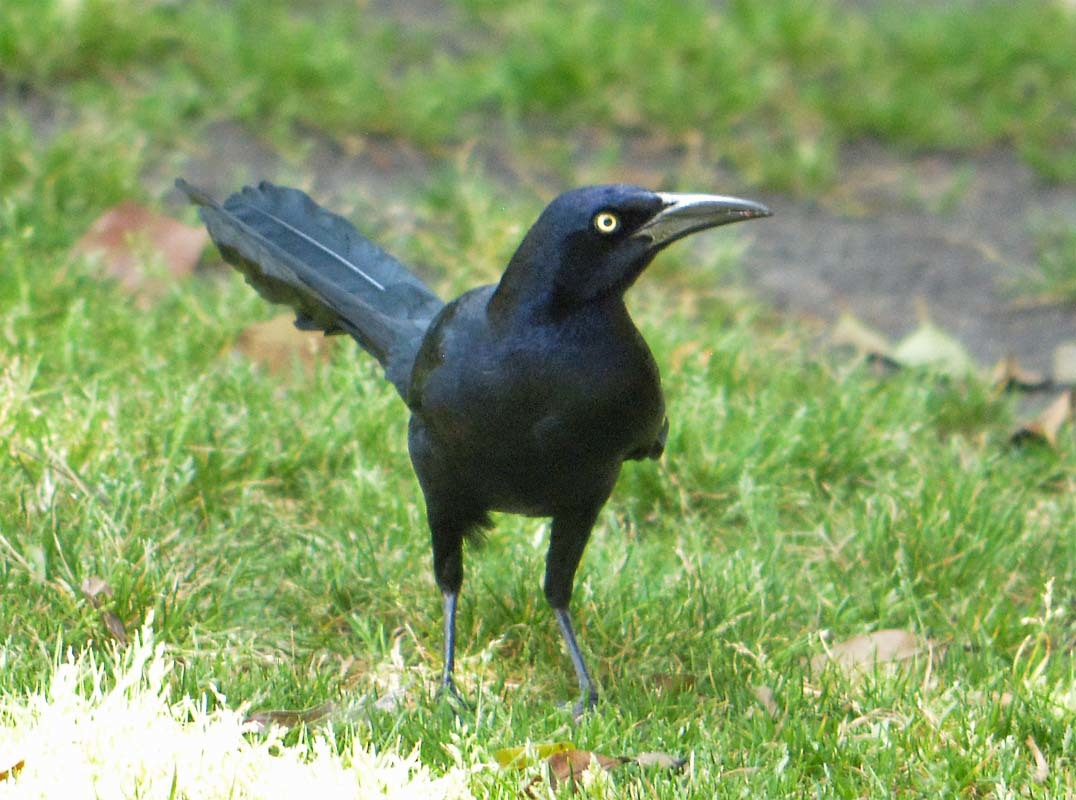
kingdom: Animalia
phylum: Chordata
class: Aves
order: Passeriformes
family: Icteridae
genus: Quiscalus
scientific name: Quiscalus mexicanus
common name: Great-tailed grackle
